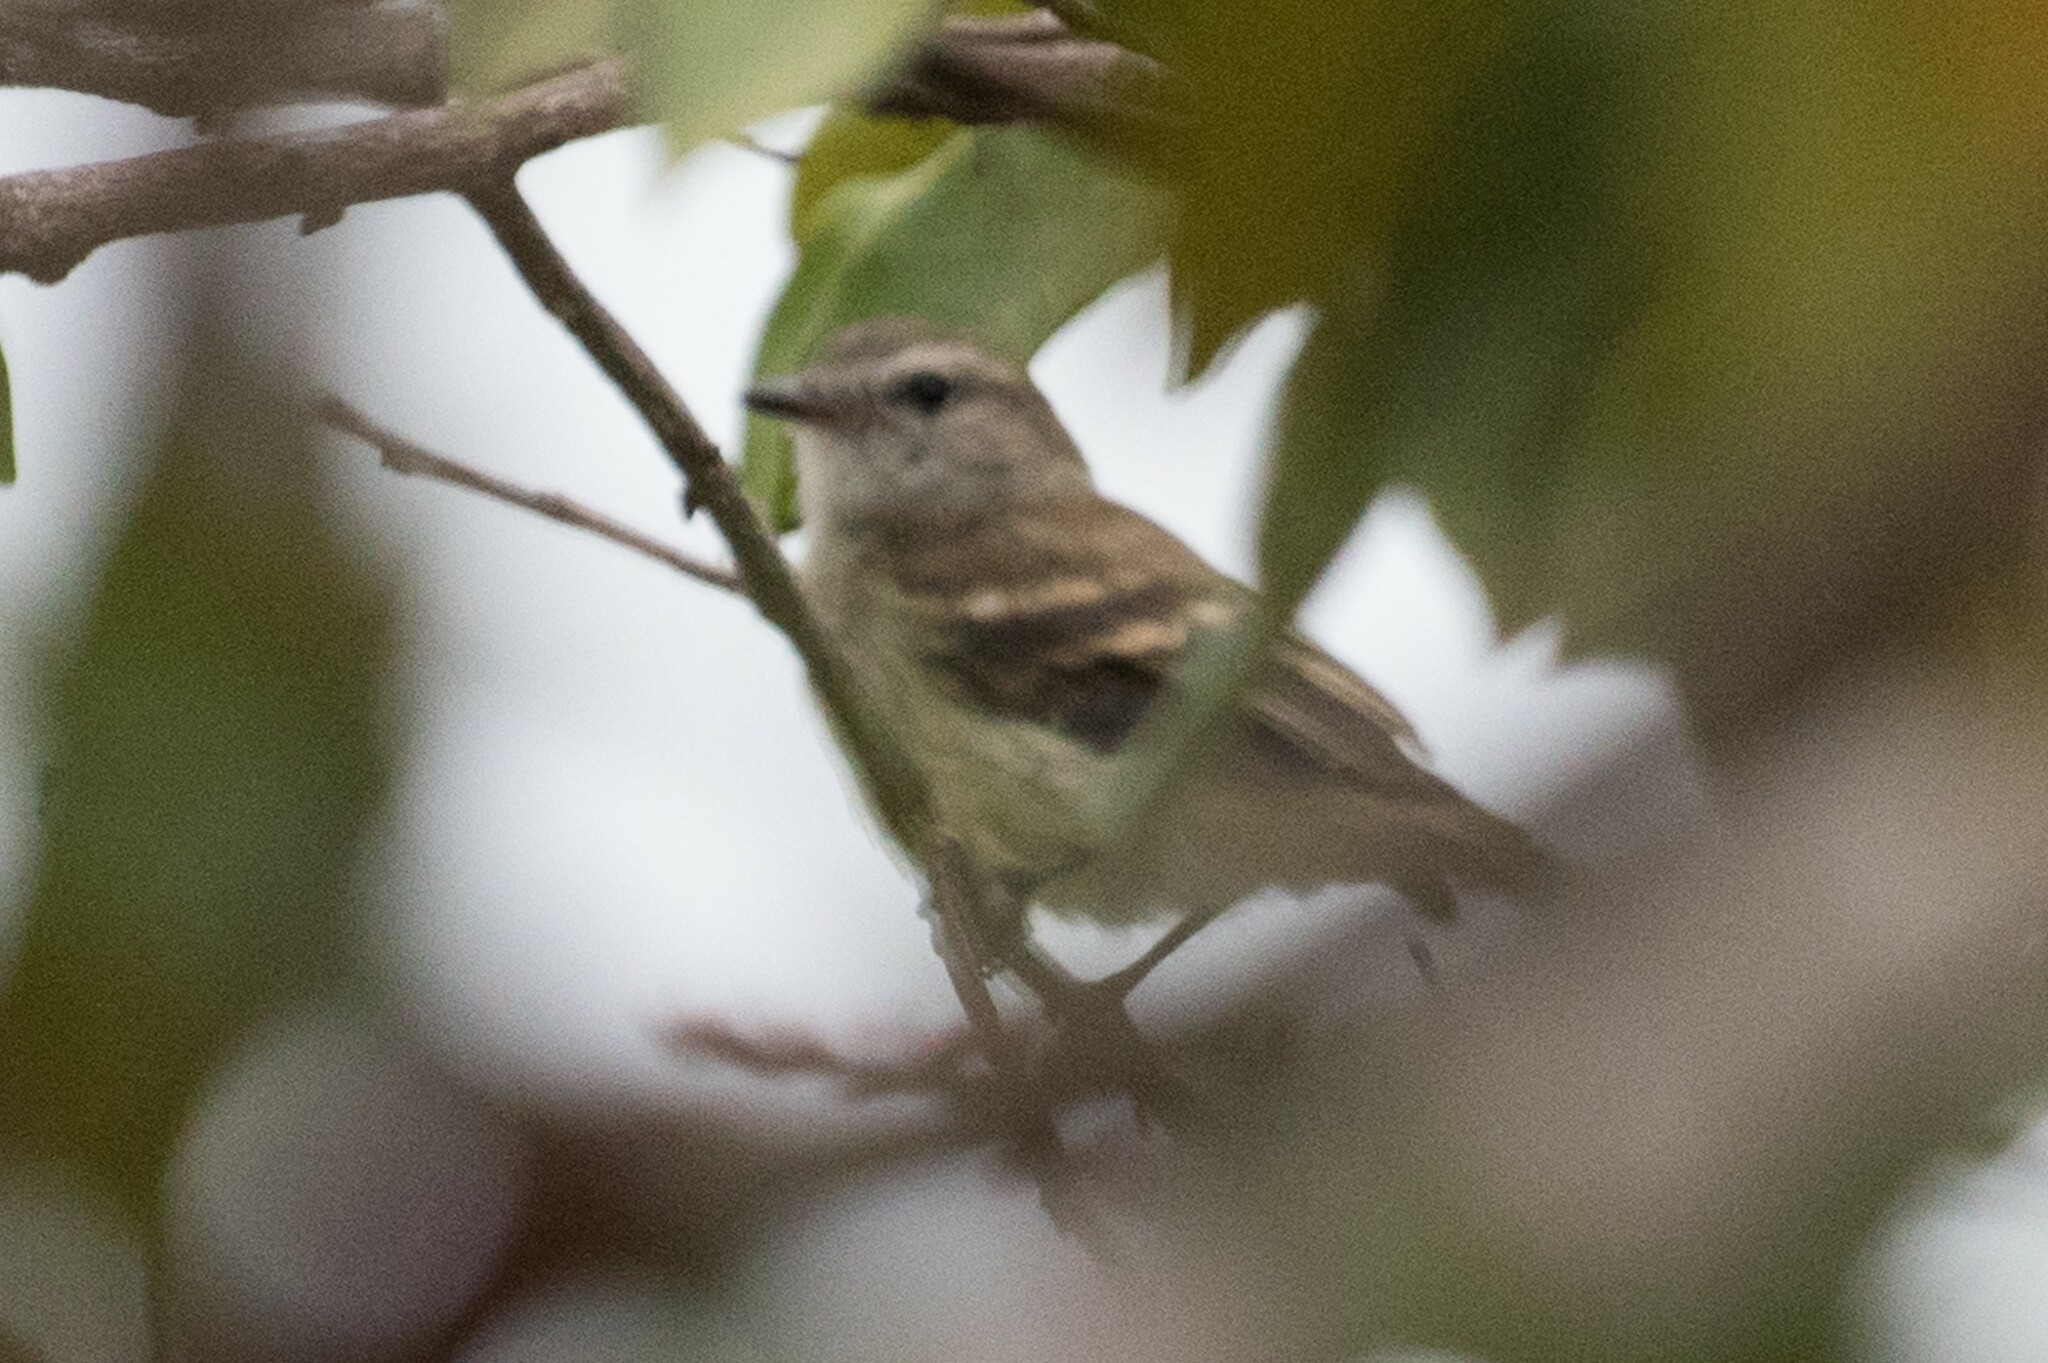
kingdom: Animalia
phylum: Chordata
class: Aves
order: Passeriformes
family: Tyrannidae
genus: Cnemotriccus
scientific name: Cnemotriccus fuscatus
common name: Fuscous flycatcher
